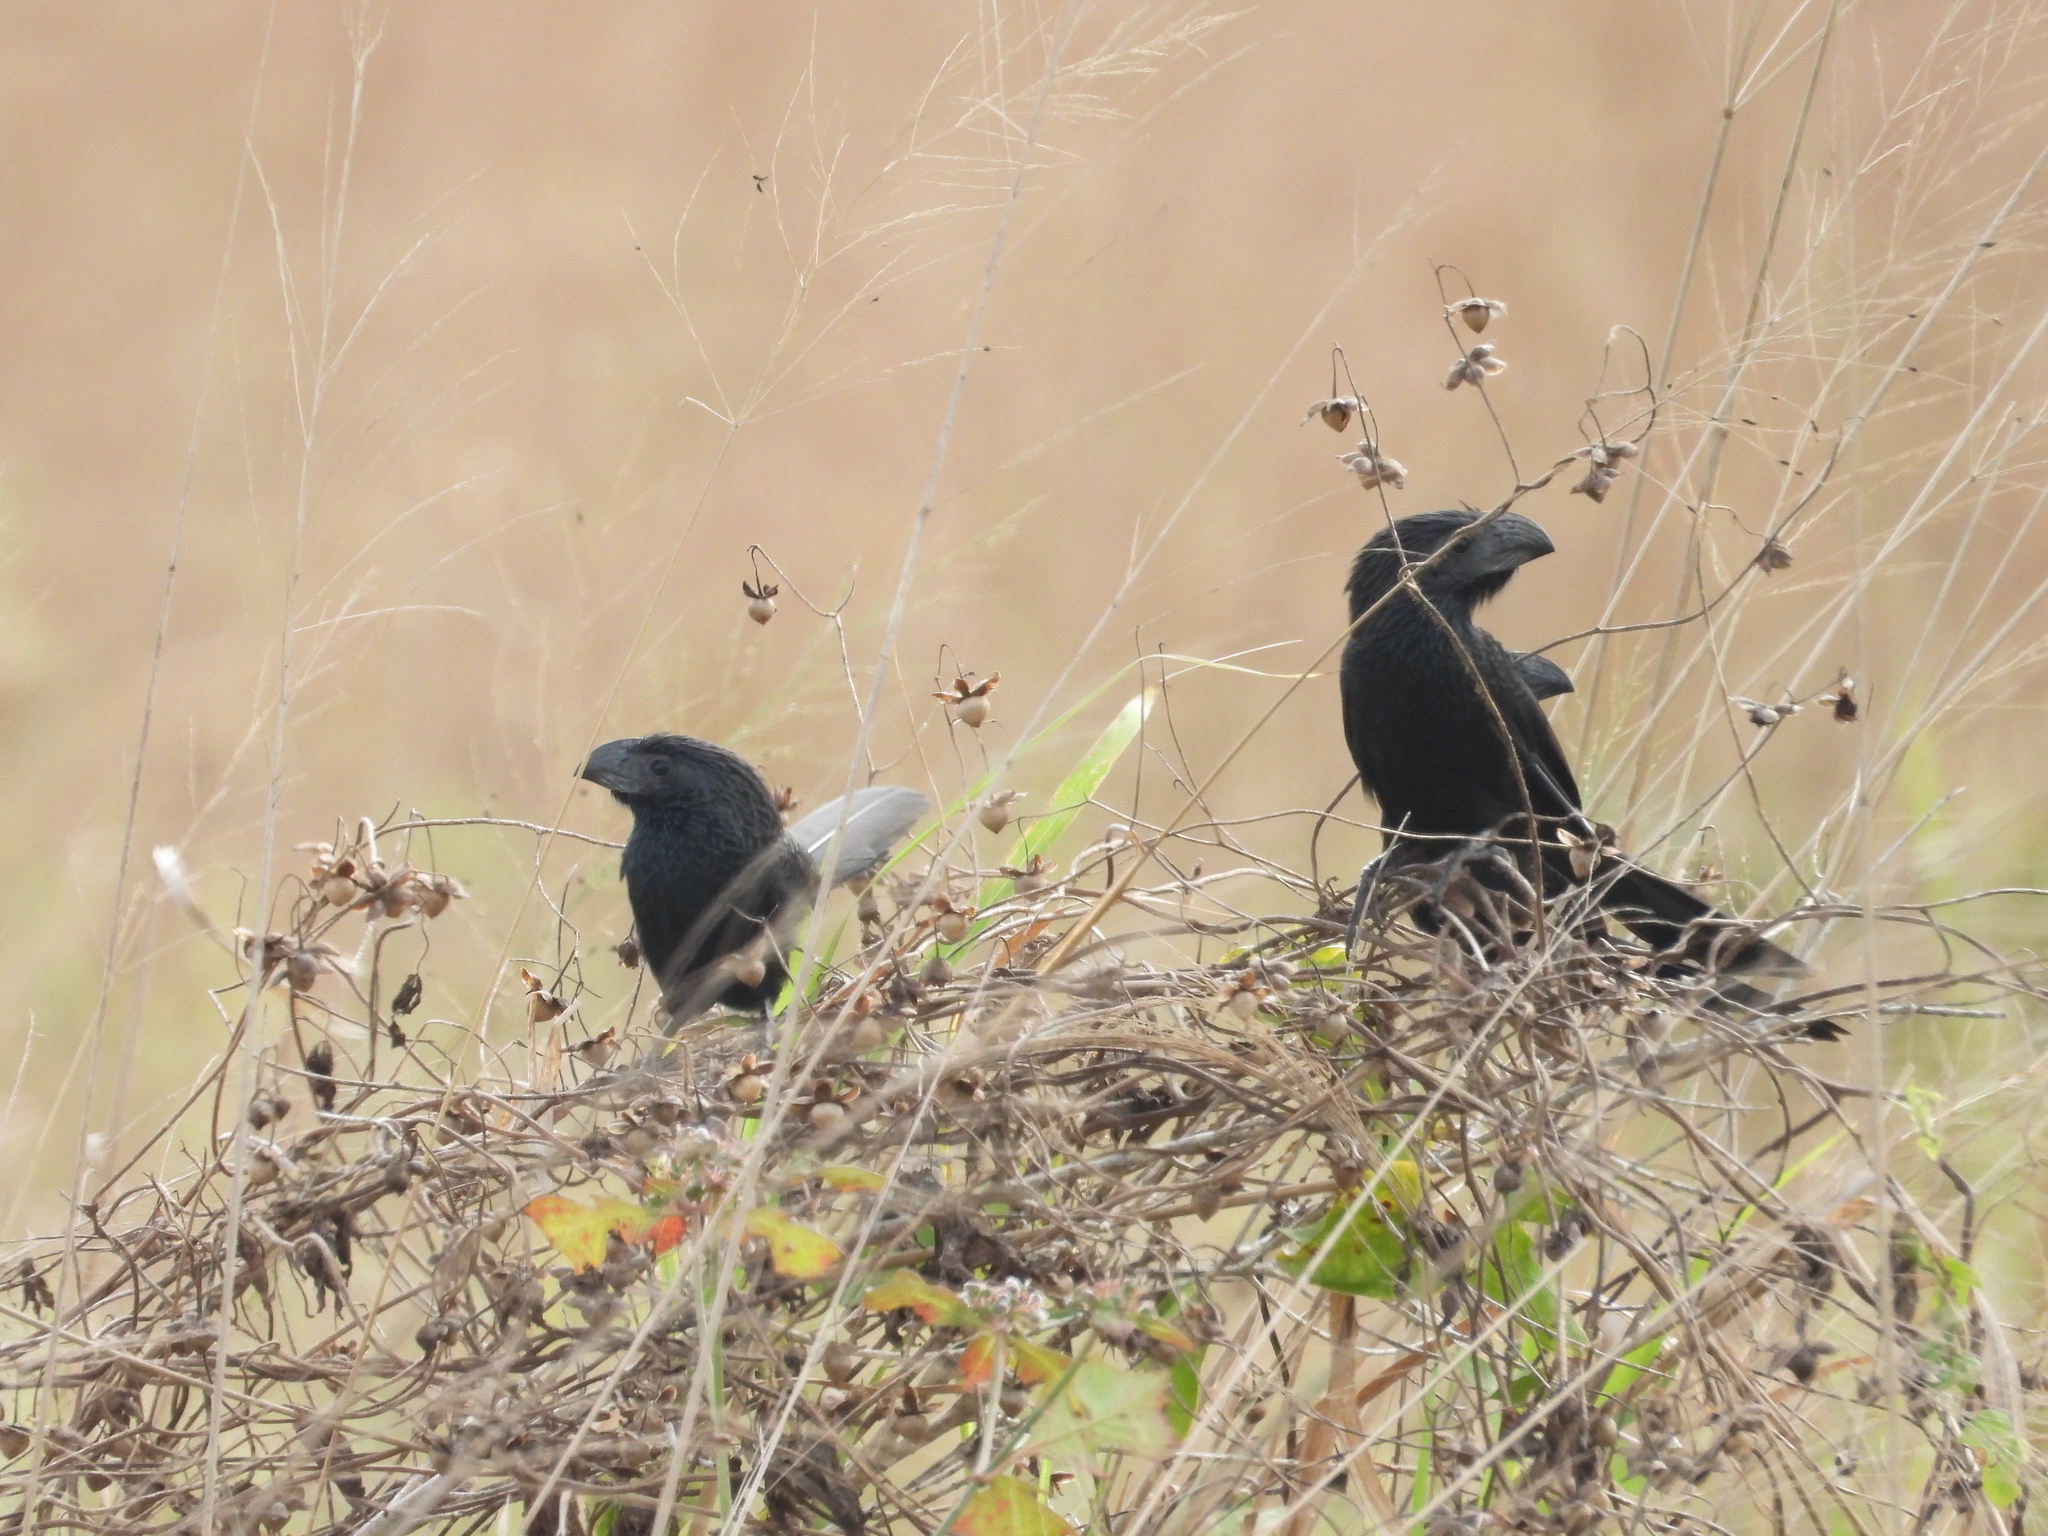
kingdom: Animalia
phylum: Chordata
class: Aves
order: Cuculiformes
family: Cuculidae
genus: Crotophaga
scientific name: Crotophaga sulcirostris
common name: Groove-billed ani
